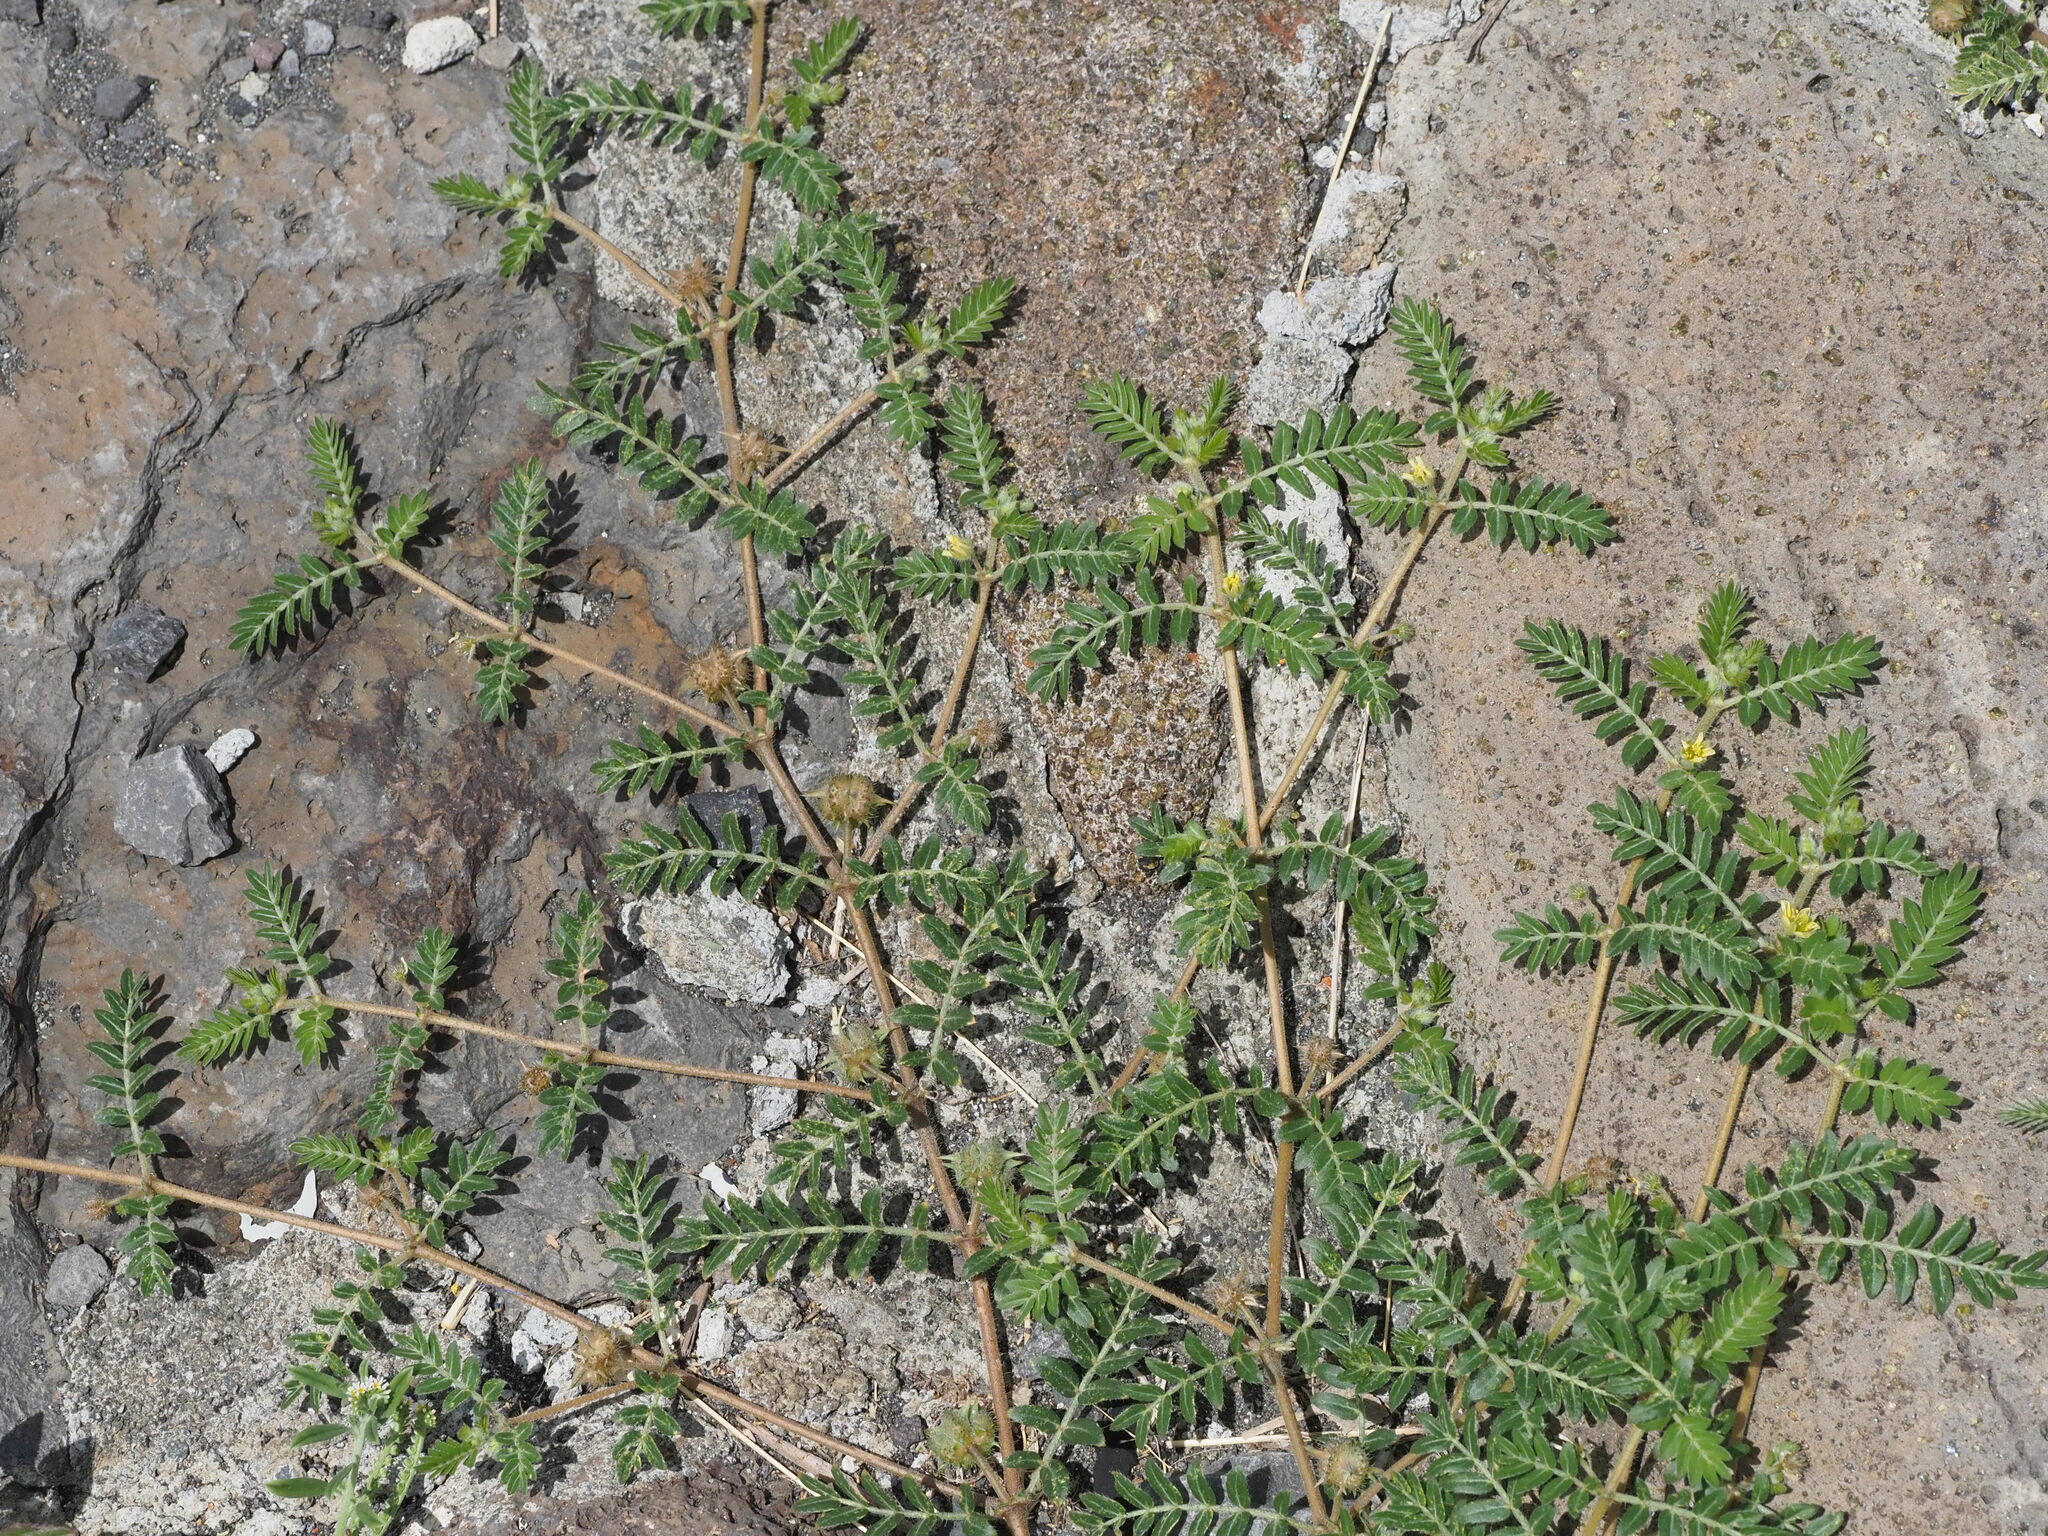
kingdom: Plantae
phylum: Tracheophyta
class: Magnoliopsida
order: Zygophyllales
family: Zygophyllaceae
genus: Tribulus
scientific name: Tribulus terrestris
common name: Puncturevine
